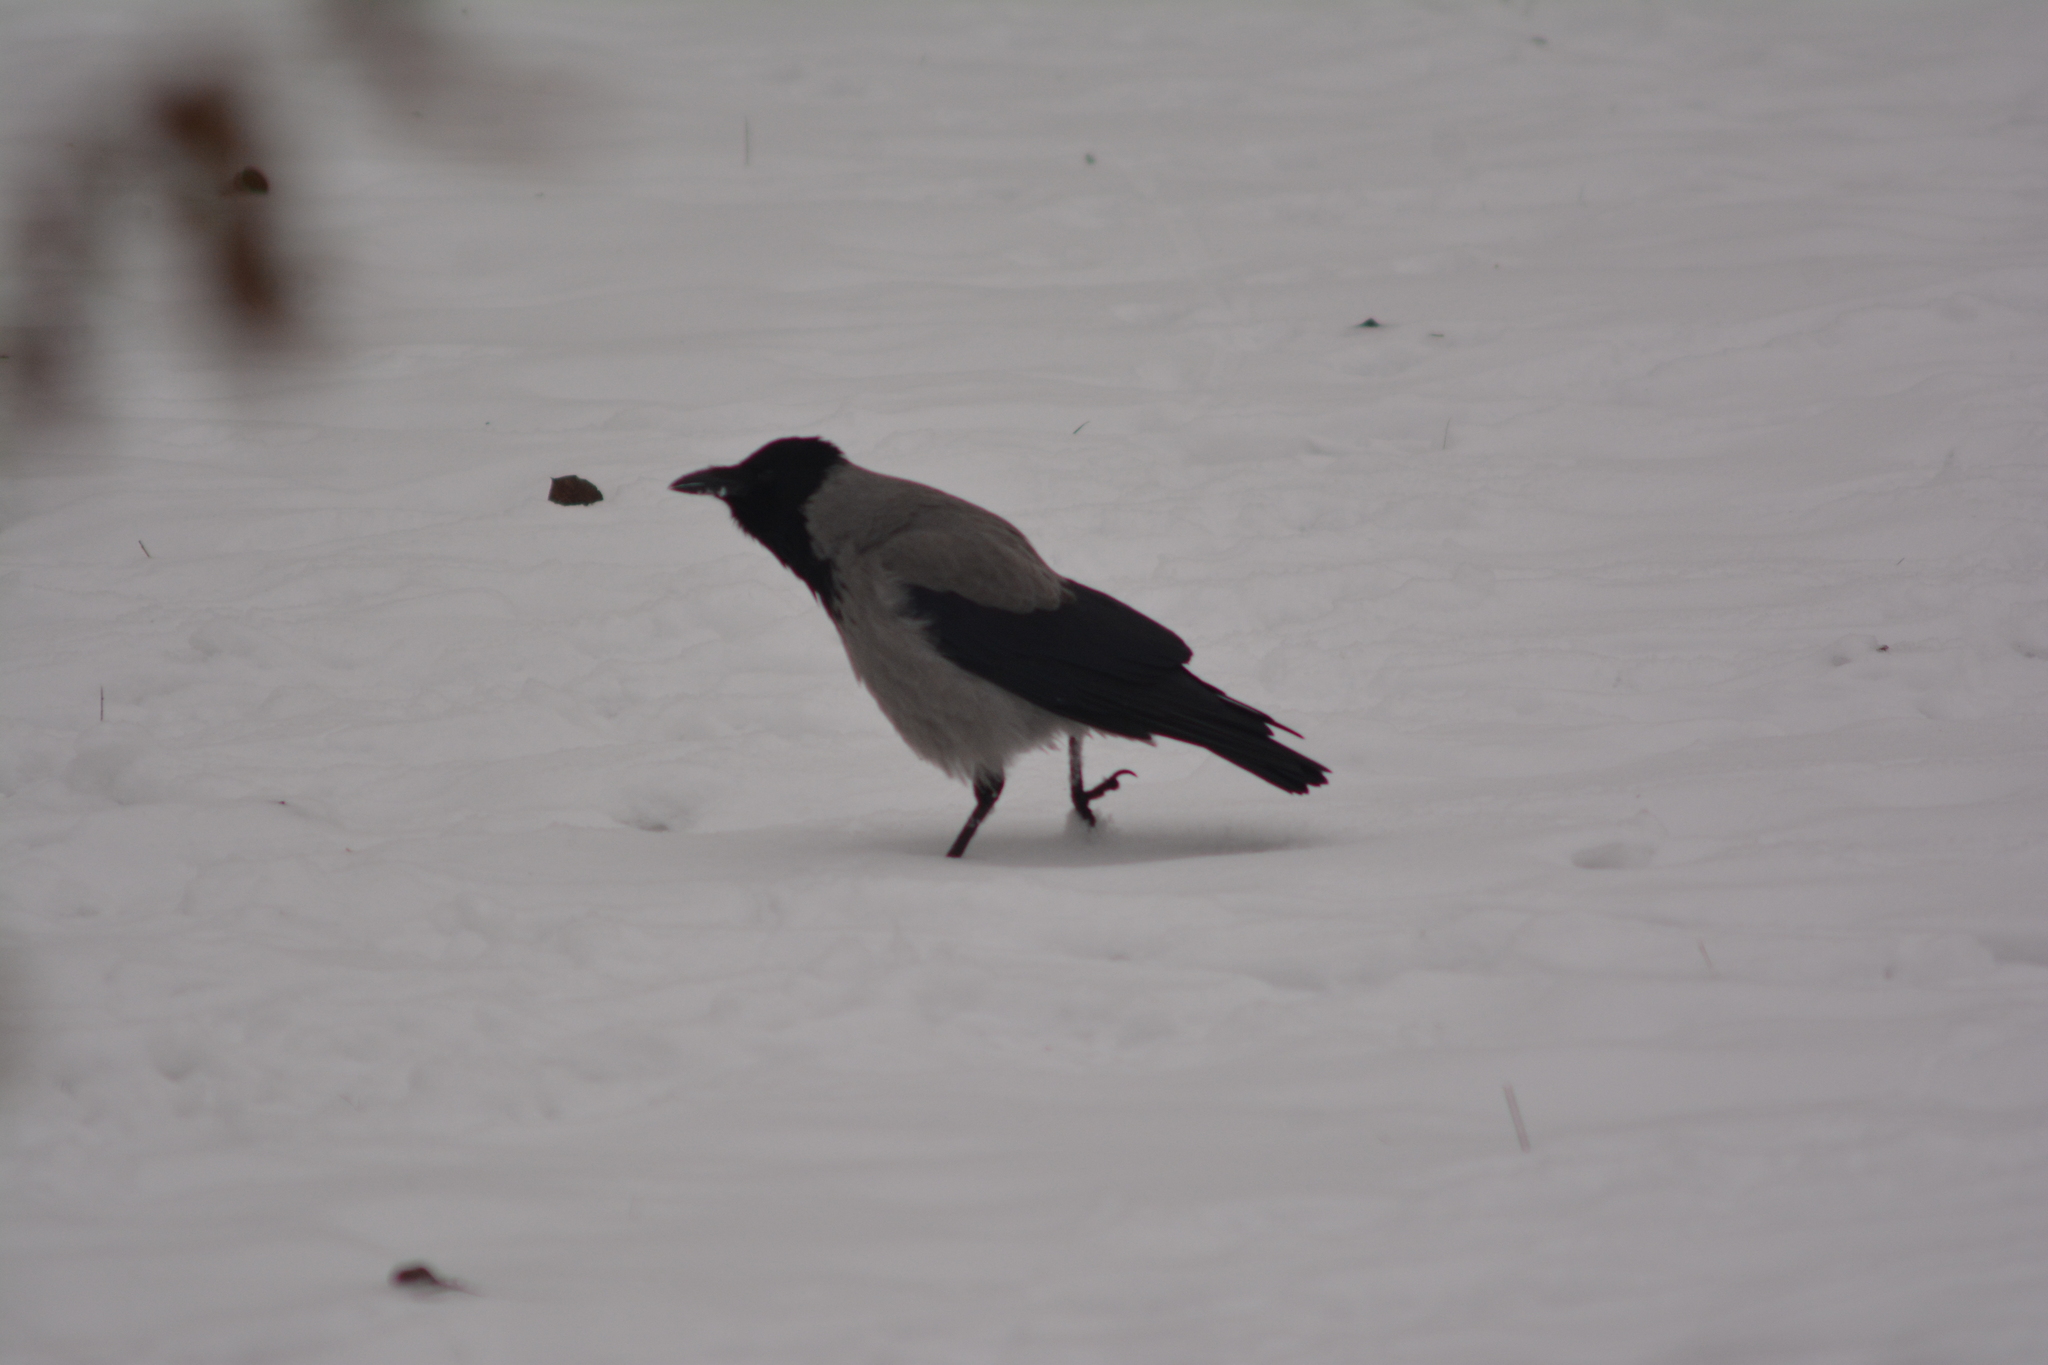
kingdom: Animalia
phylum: Chordata
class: Aves
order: Passeriformes
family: Corvidae
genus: Corvus
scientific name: Corvus cornix
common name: Hooded crow
